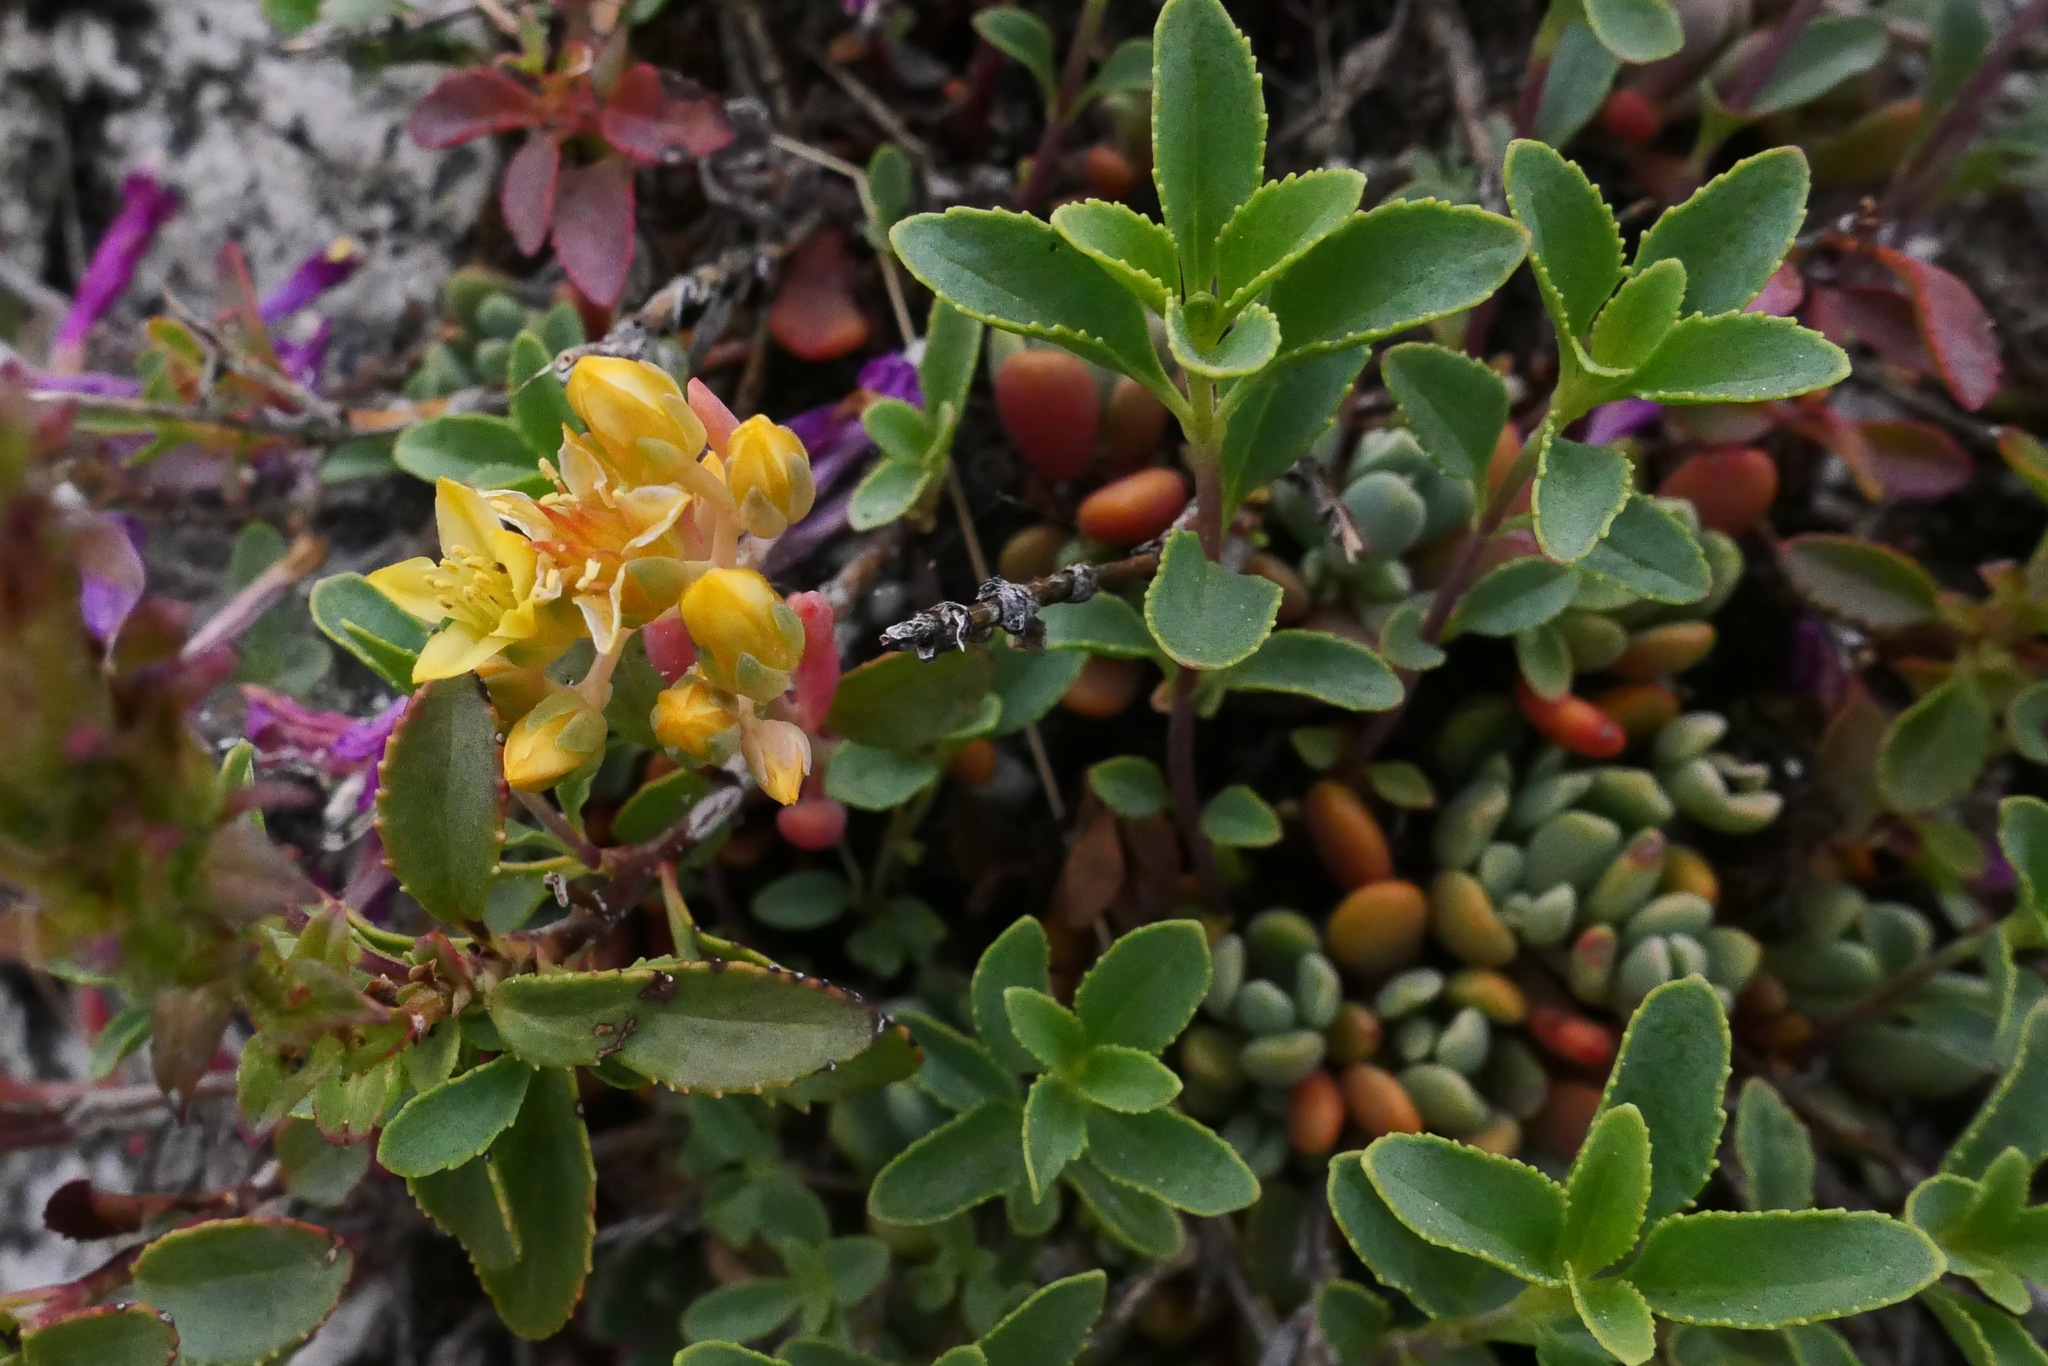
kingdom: Plantae
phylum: Tracheophyta
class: Magnoliopsida
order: Saxifragales
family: Crassulaceae
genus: Sedum
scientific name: Sedum obtusatum
